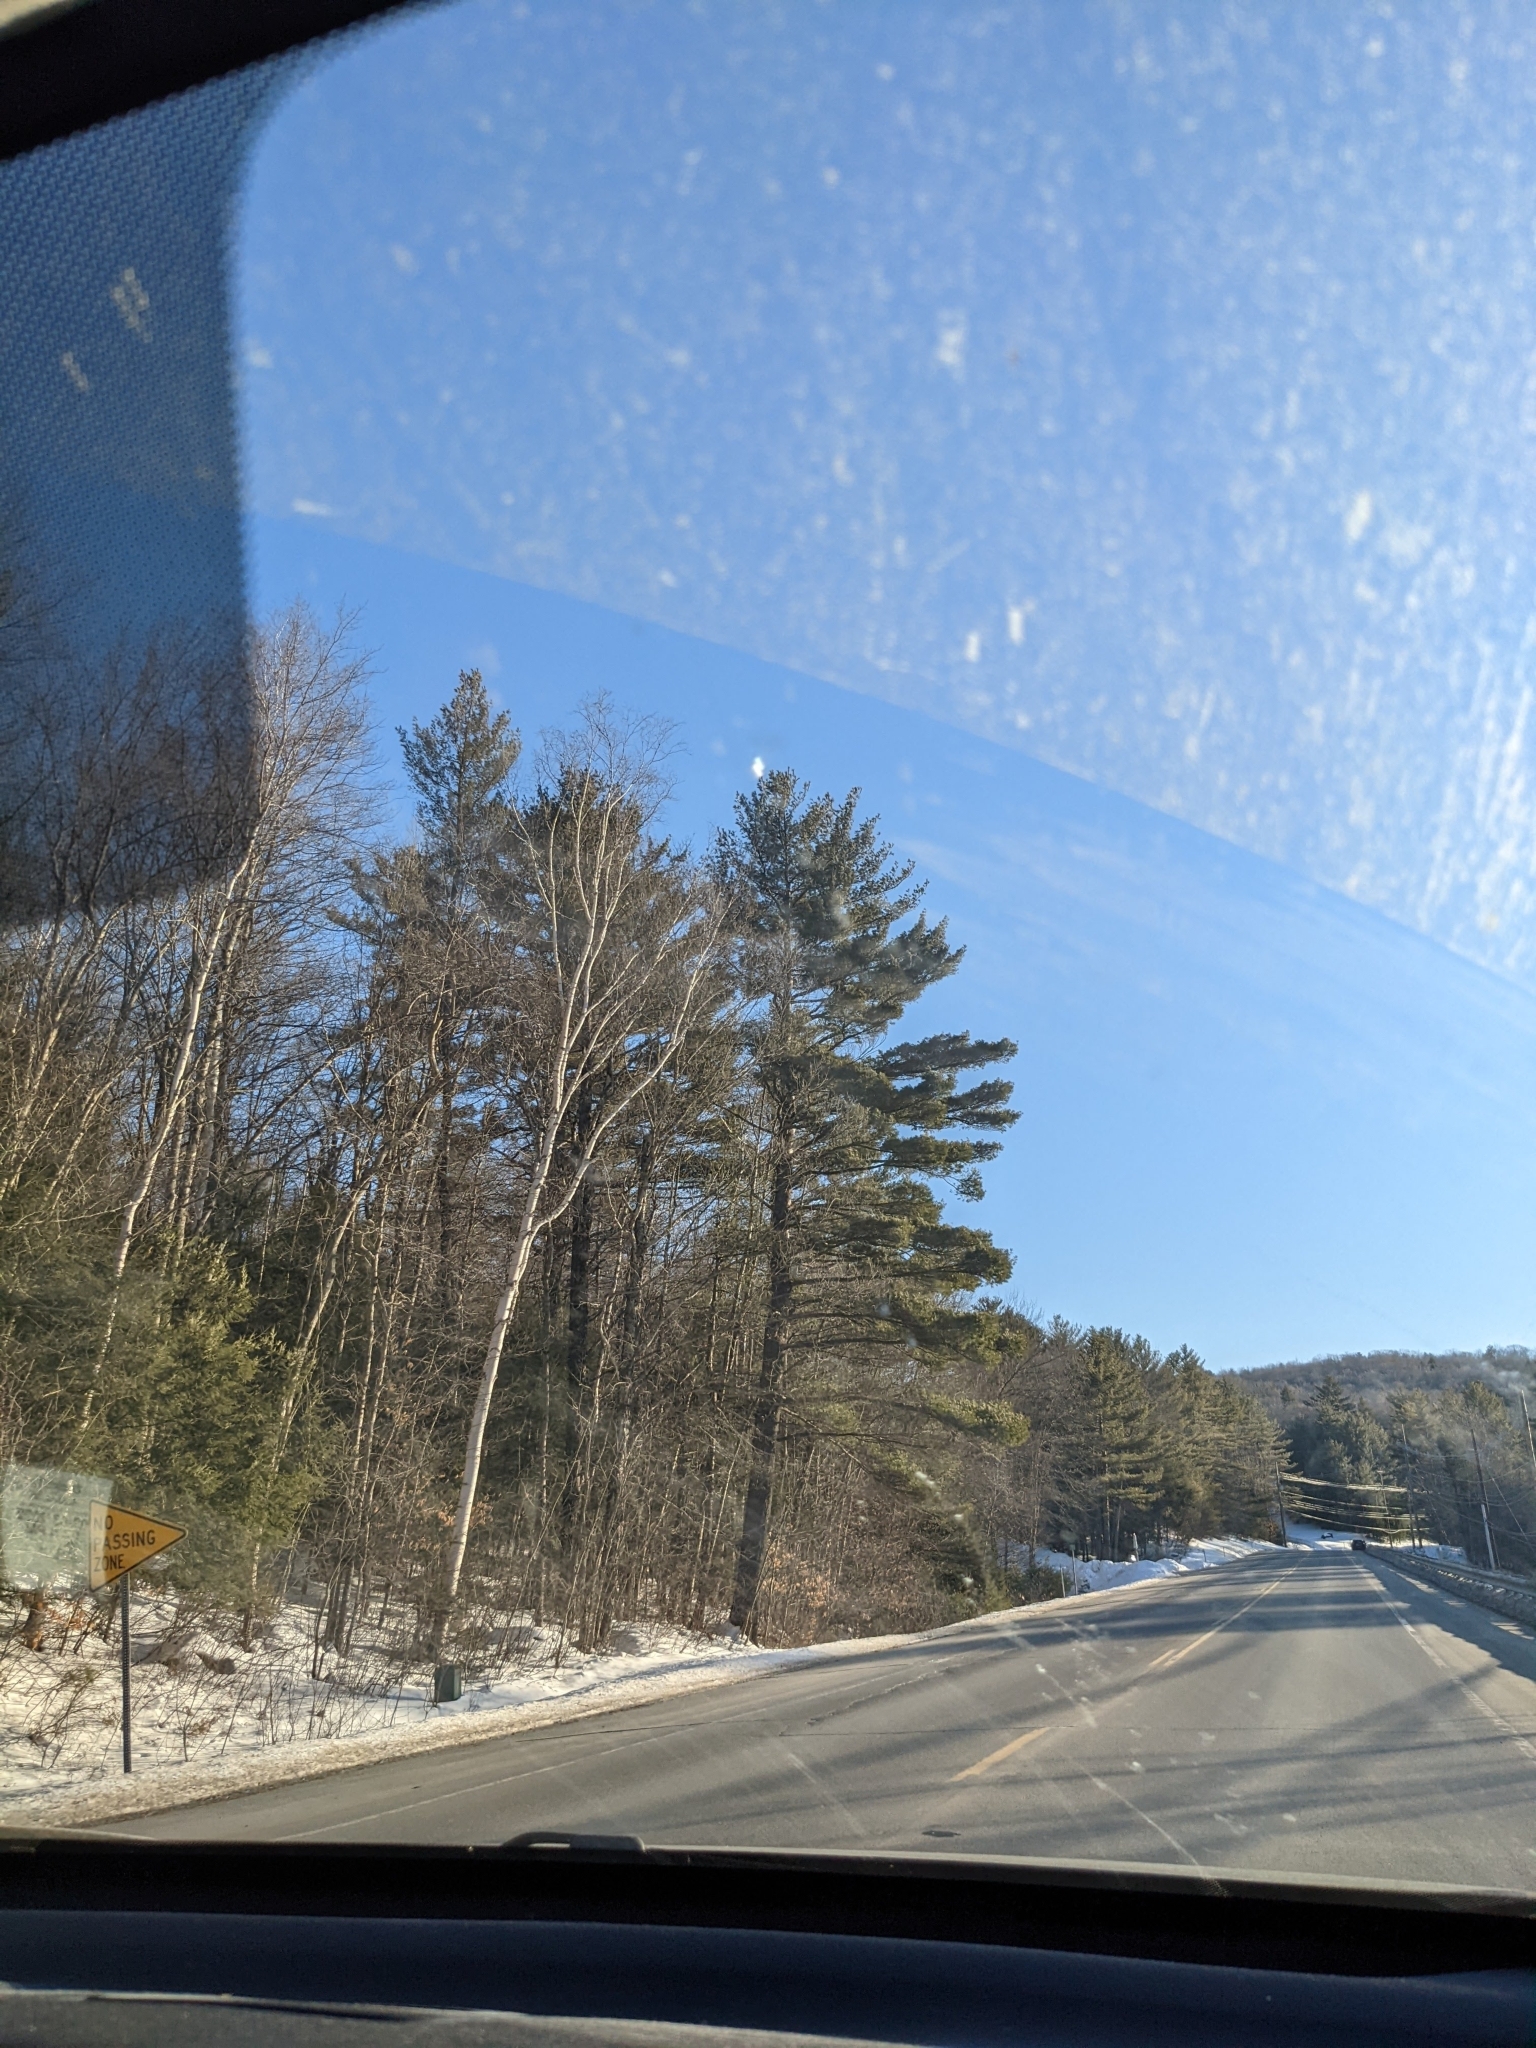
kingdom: Plantae
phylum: Tracheophyta
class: Pinopsida
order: Pinales
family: Pinaceae
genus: Pinus
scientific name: Pinus strobus
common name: Weymouth pine
